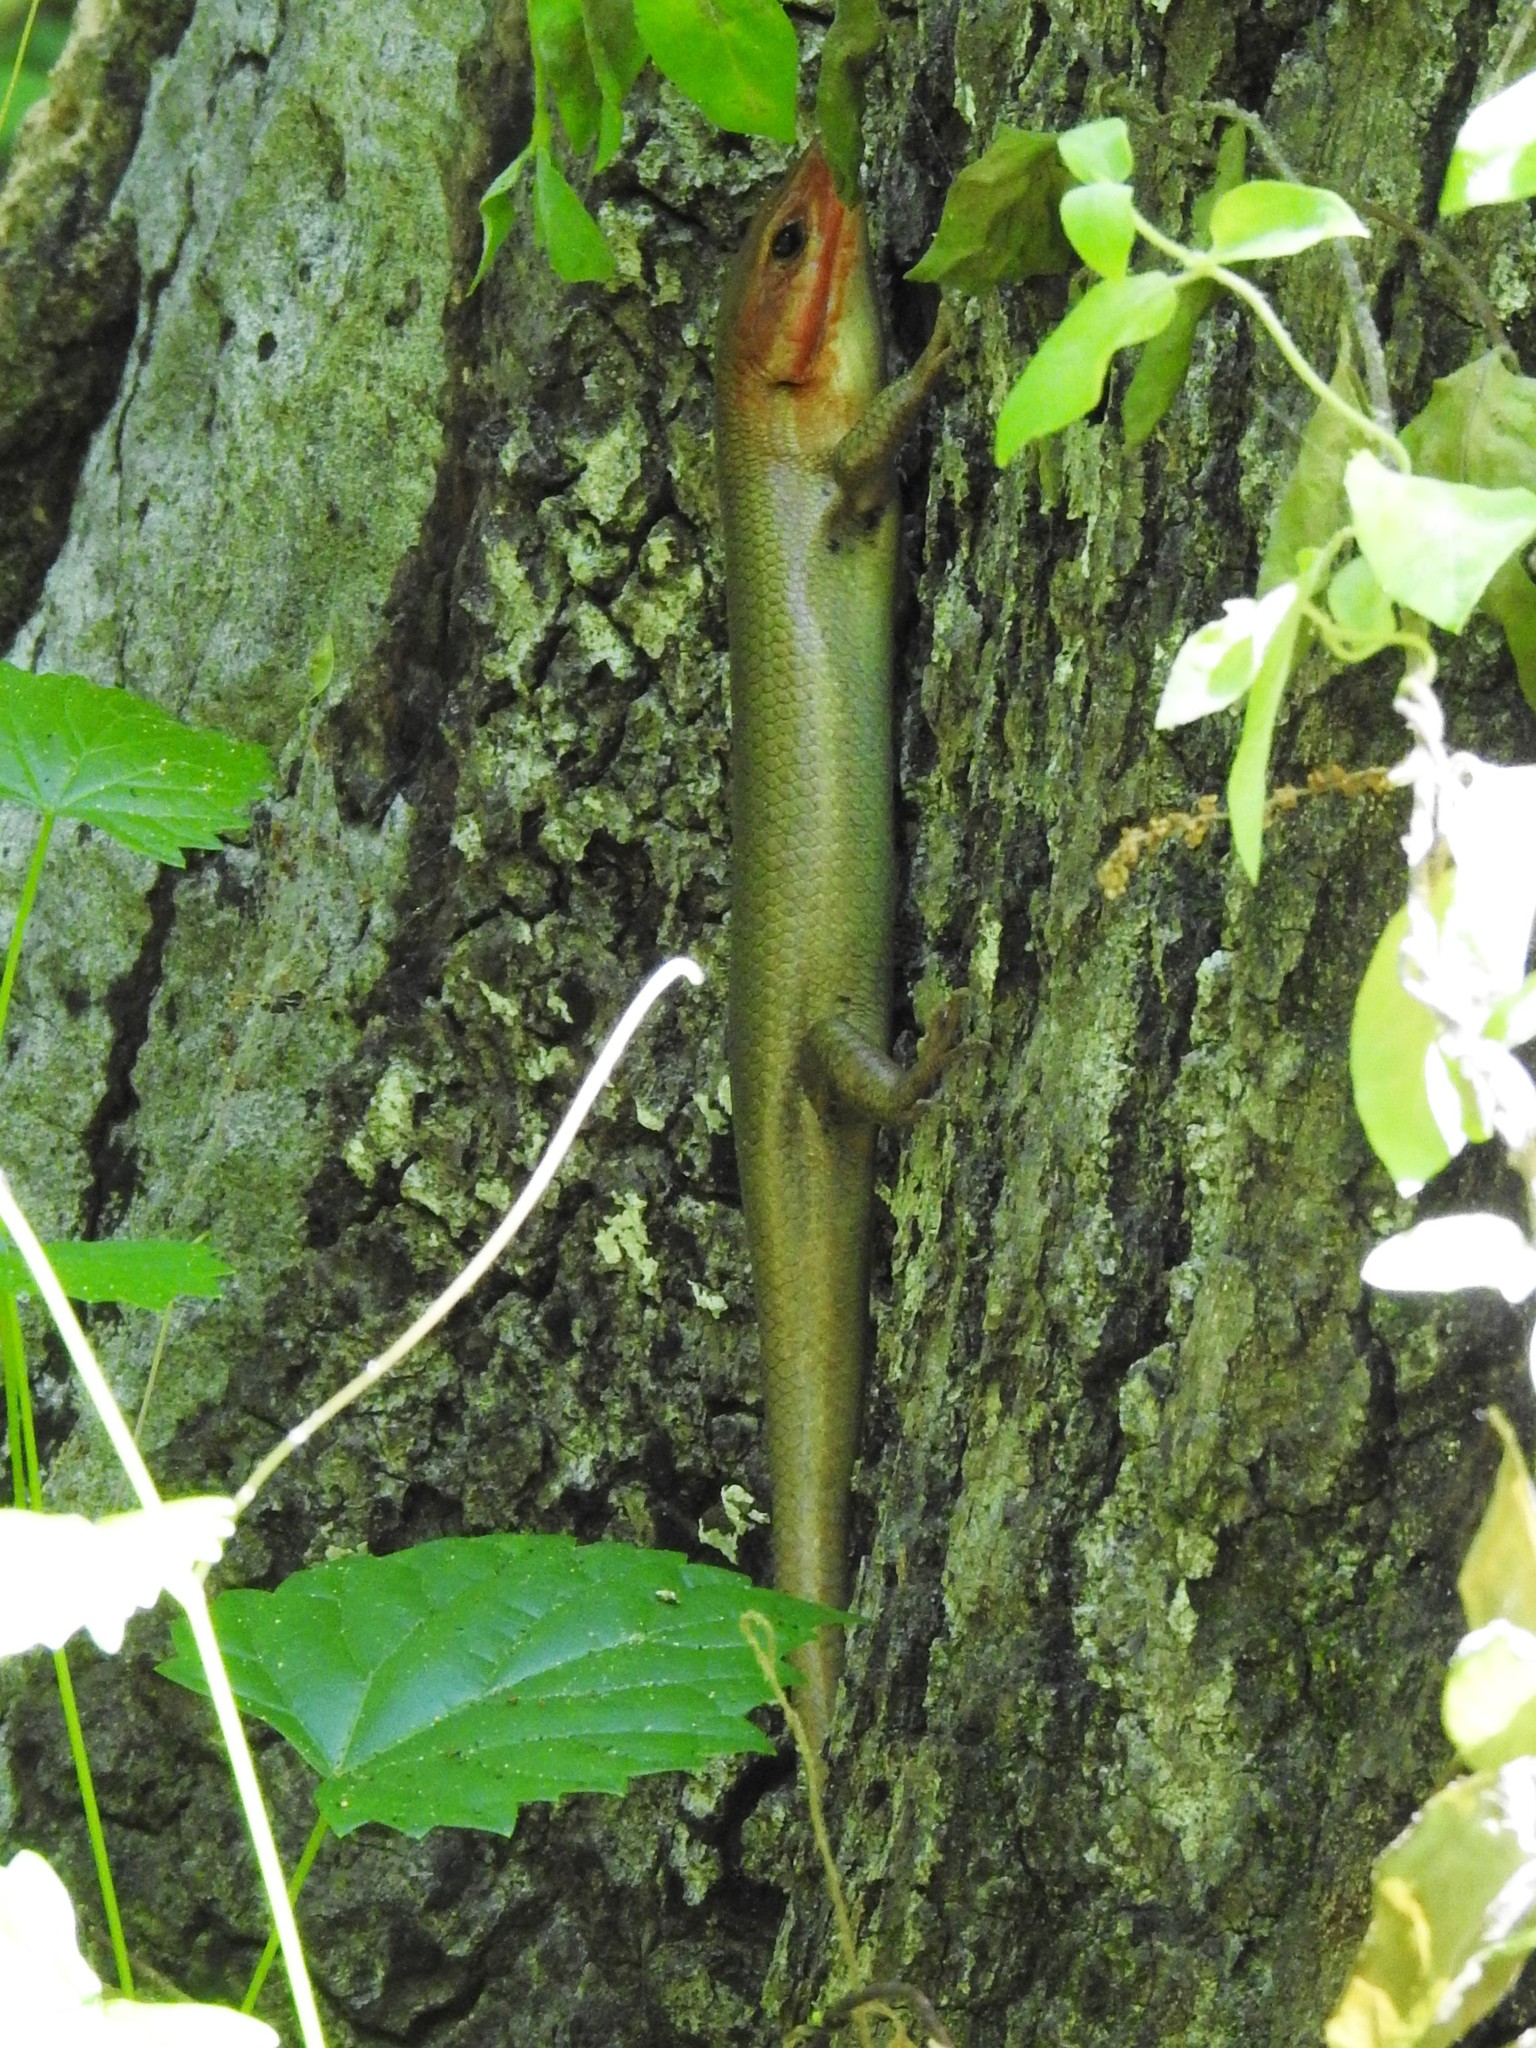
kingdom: Animalia
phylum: Chordata
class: Squamata
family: Scincidae
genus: Plestiodon
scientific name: Plestiodon laticeps
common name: Broadhead skink
